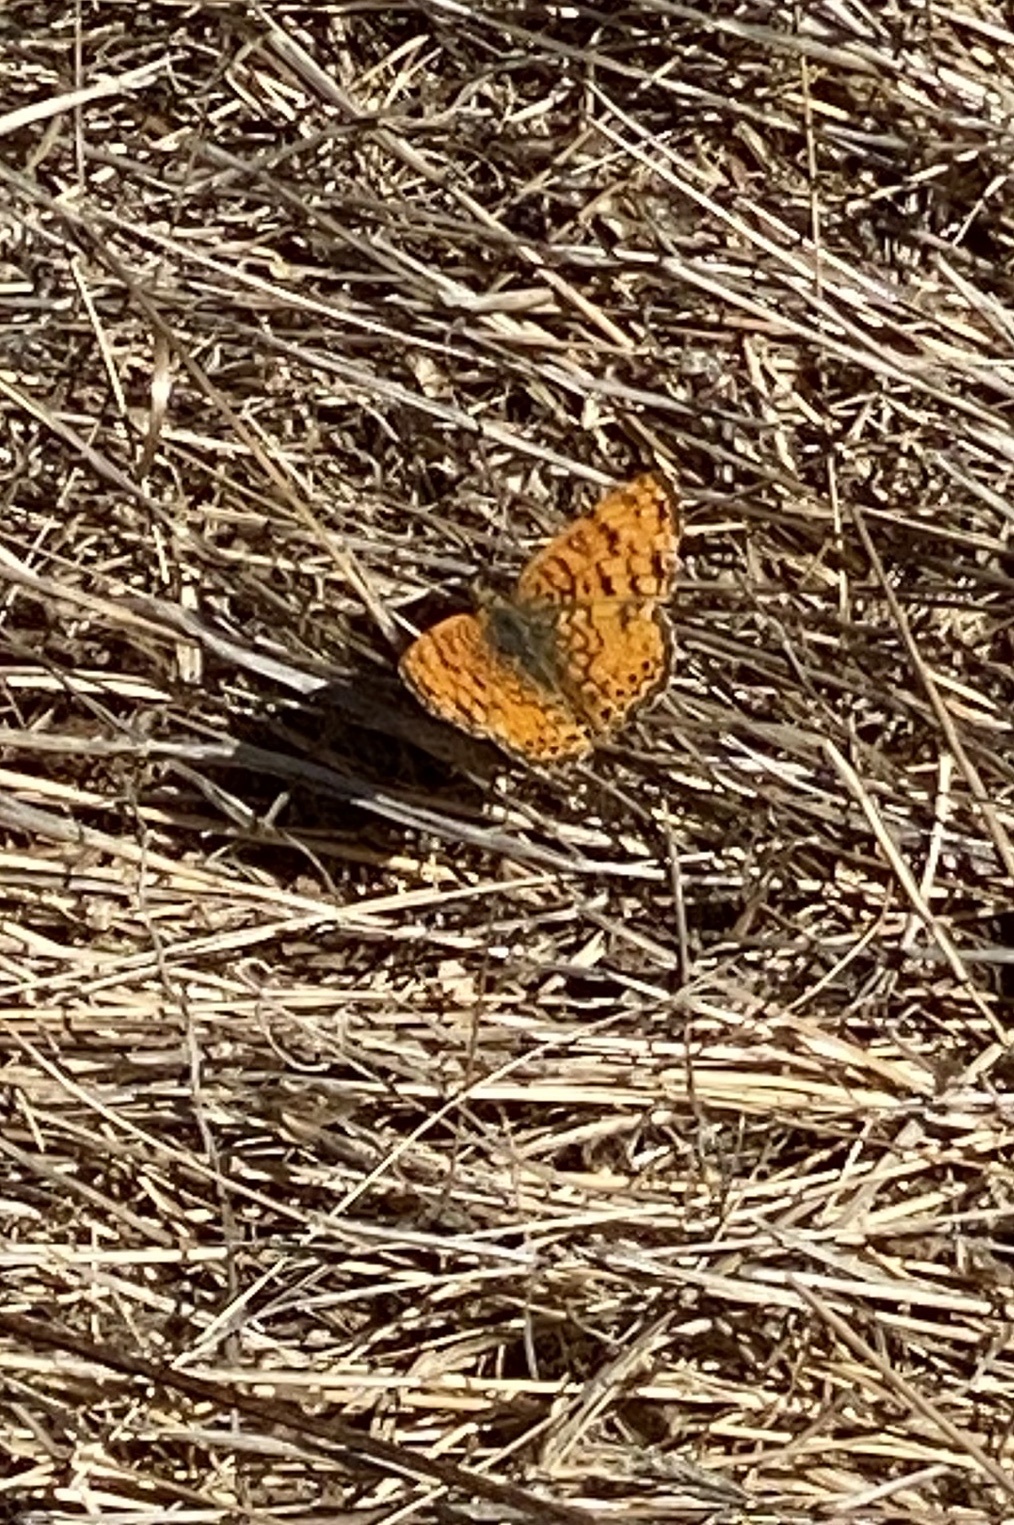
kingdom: Animalia
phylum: Arthropoda
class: Insecta
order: Lepidoptera
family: Nymphalidae
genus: Eresia
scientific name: Eresia aveyrona
